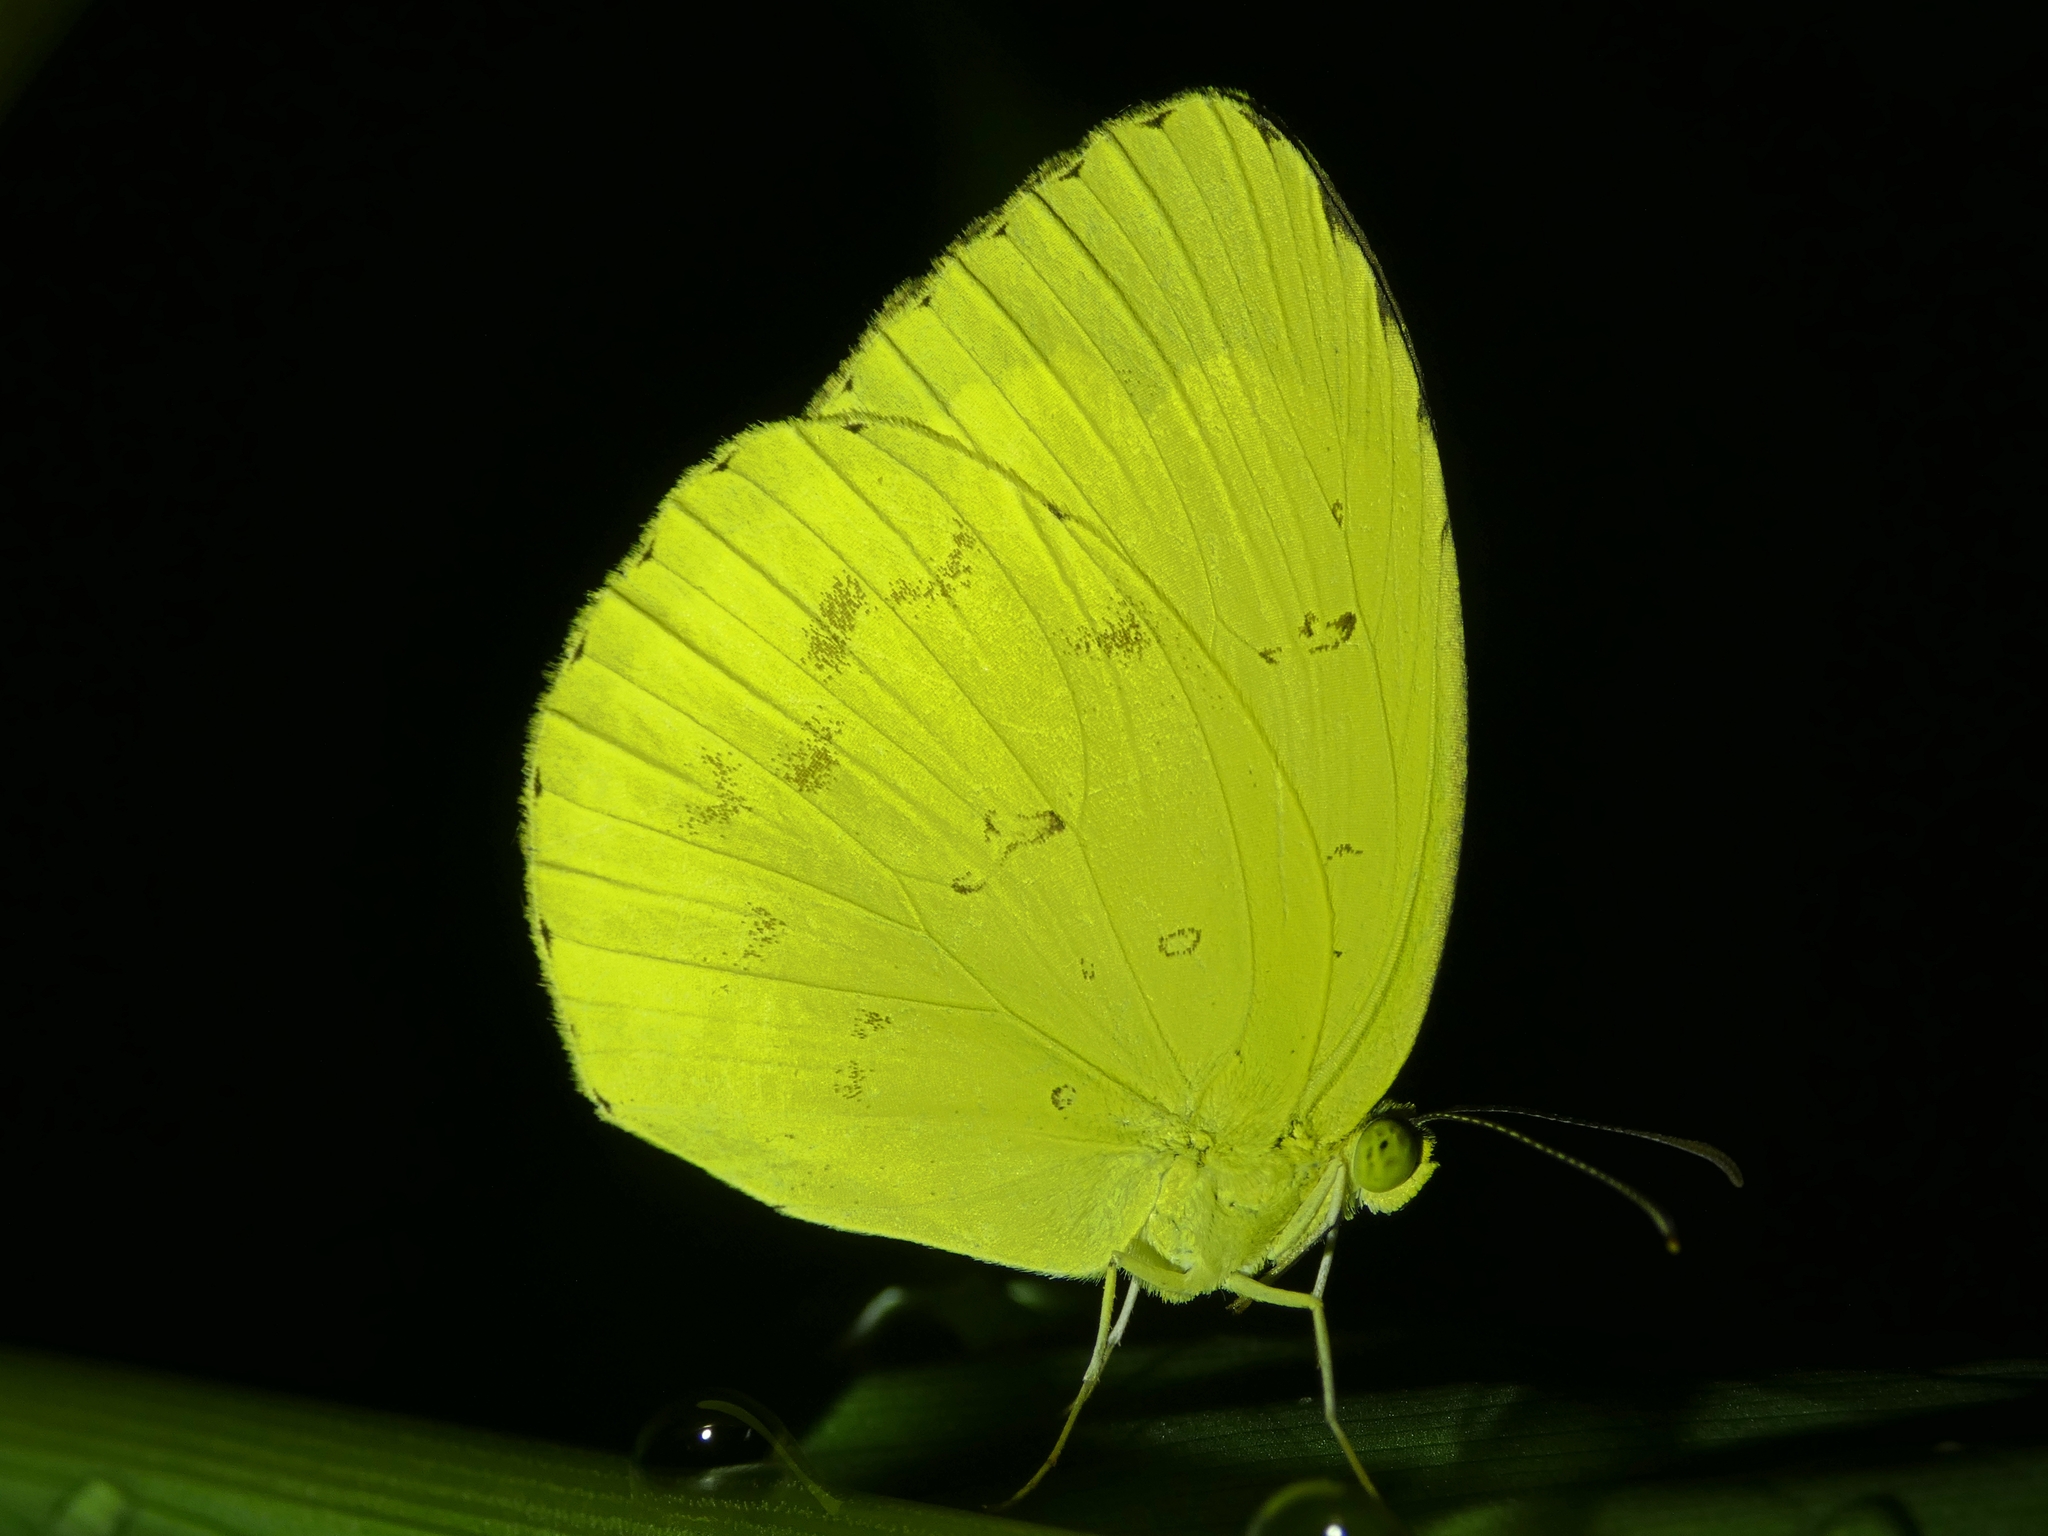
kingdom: Animalia
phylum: Arthropoda
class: Insecta
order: Lepidoptera
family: Pieridae
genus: Eurema
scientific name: Eurema hecabe
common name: Pale grass yellow
